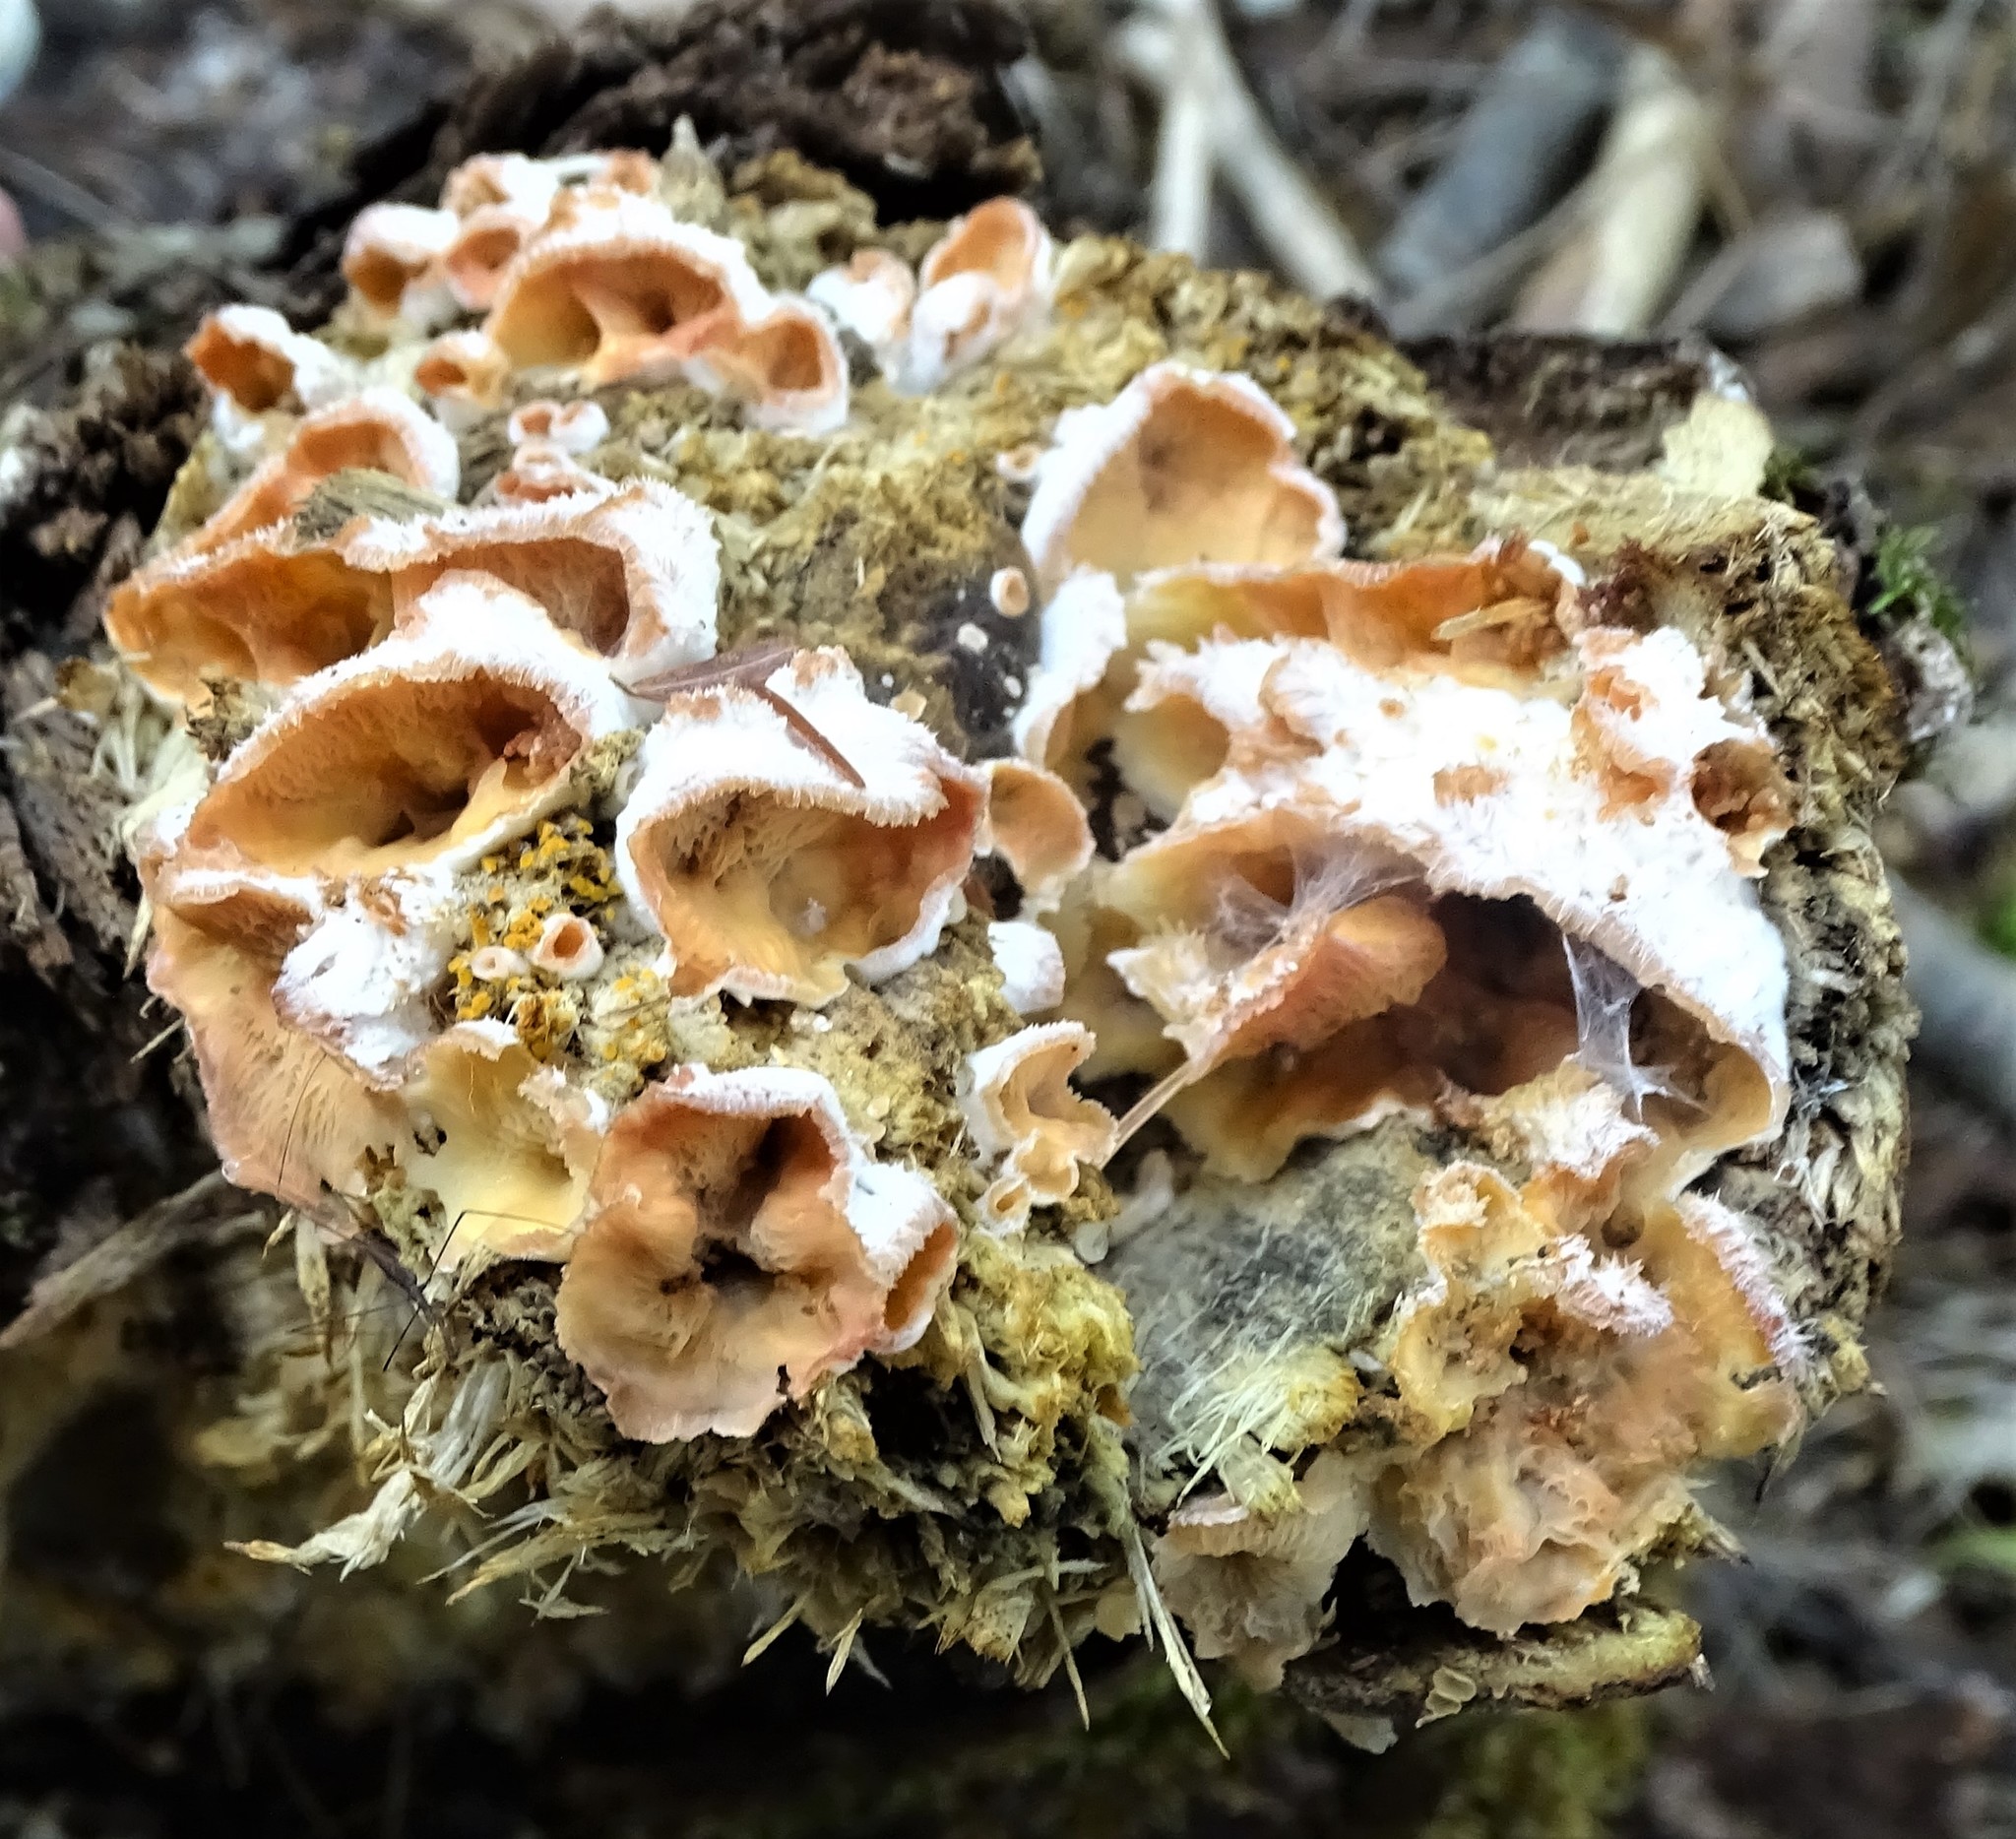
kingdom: Fungi
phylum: Basidiomycota
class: Agaricomycetes
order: Polyporales
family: Meruliaceae
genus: Phlebia
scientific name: Phlebia tremellosa
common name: Jelly rot
